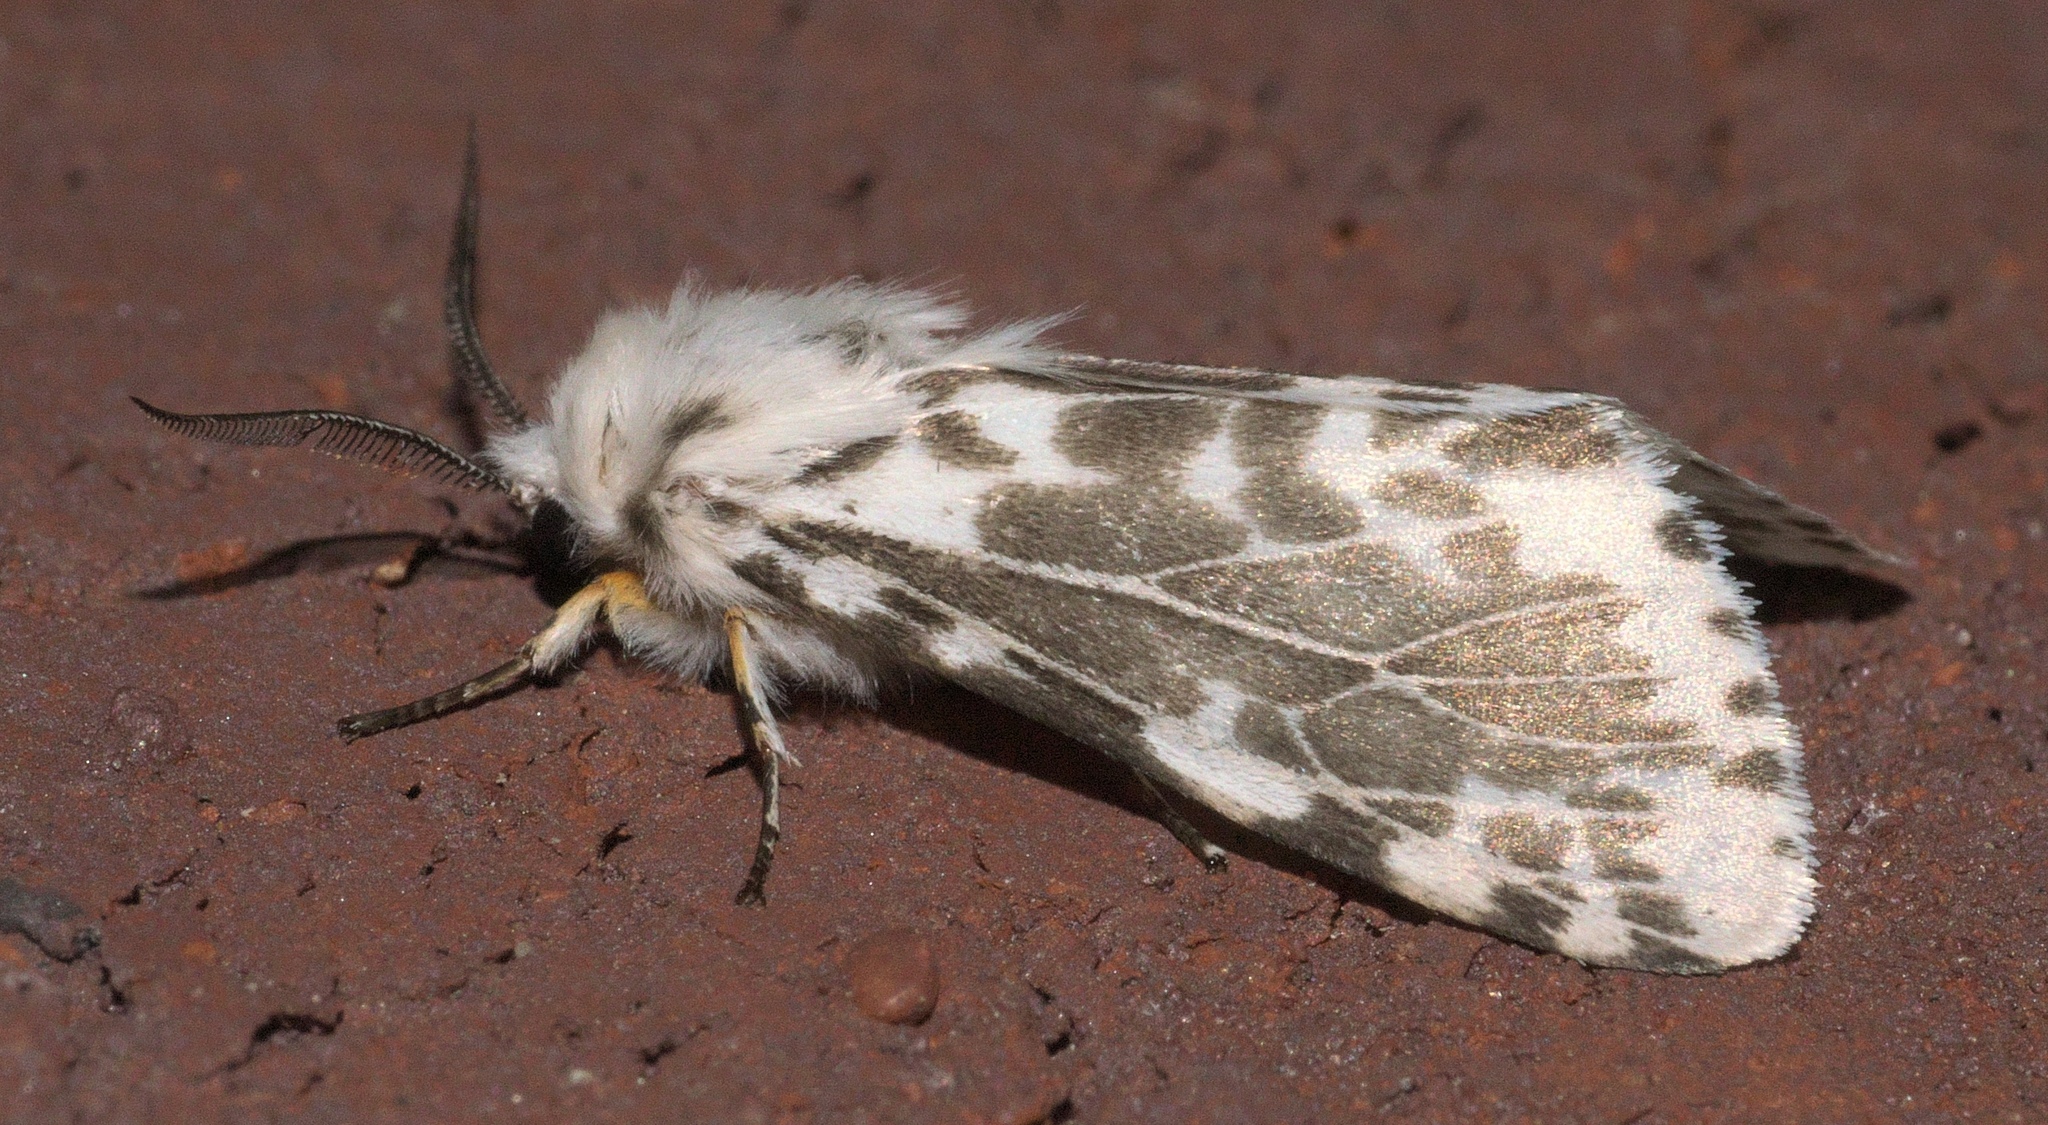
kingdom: Animalia
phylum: Arthropoda
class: Insecta
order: Lepidoptera
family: Erebidae
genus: Hyphantria
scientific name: Hyphantria cunea
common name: American white moth
